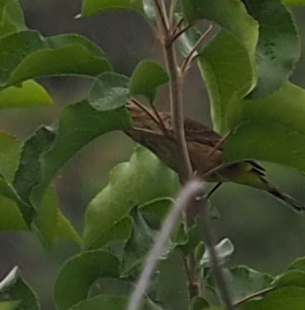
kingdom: Animalia
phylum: Chordata
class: Aves
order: Passeriformes
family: Parulidae
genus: Setophaga
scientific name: Setophaga palmarum
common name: Palm warbler
